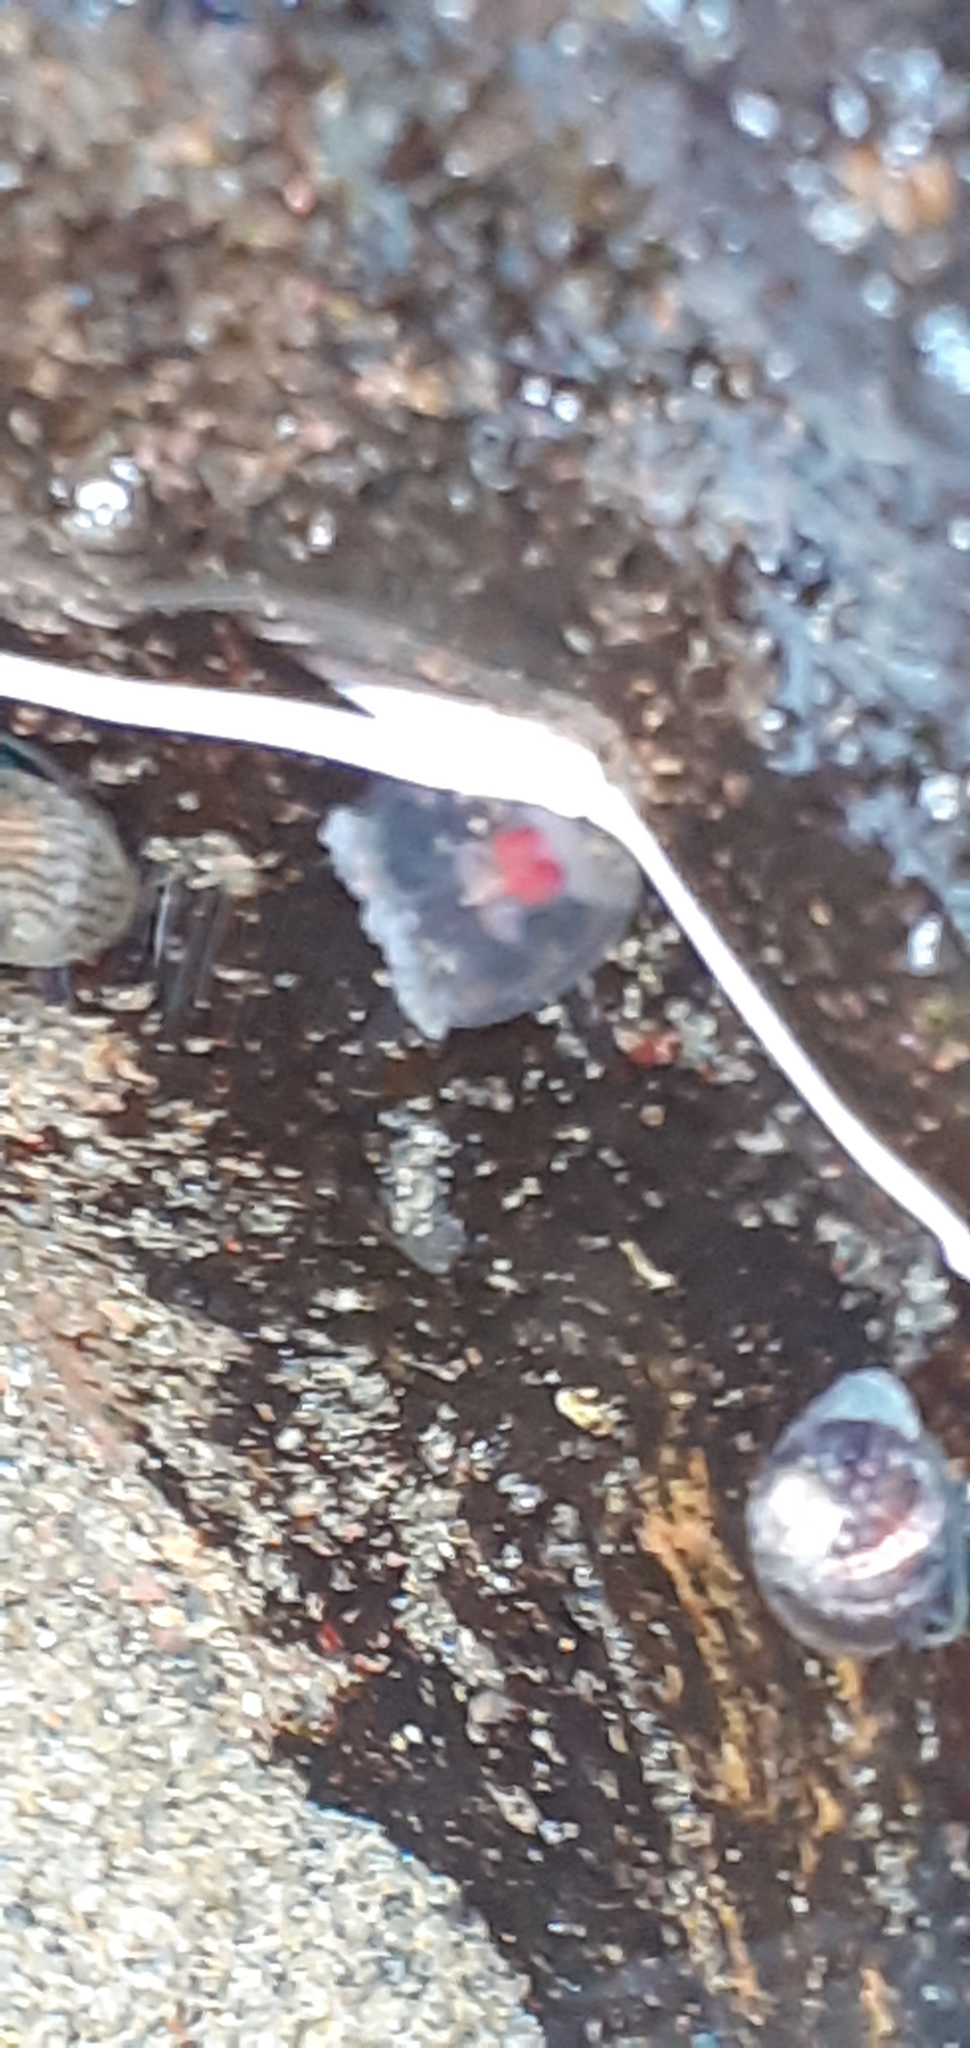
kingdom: Animalia
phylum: Cnidaria
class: Hydrozoa
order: Anthoathecata
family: Oceaniidae
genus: Turritopsis
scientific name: Turritopsis rubra
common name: Crimson jelly
